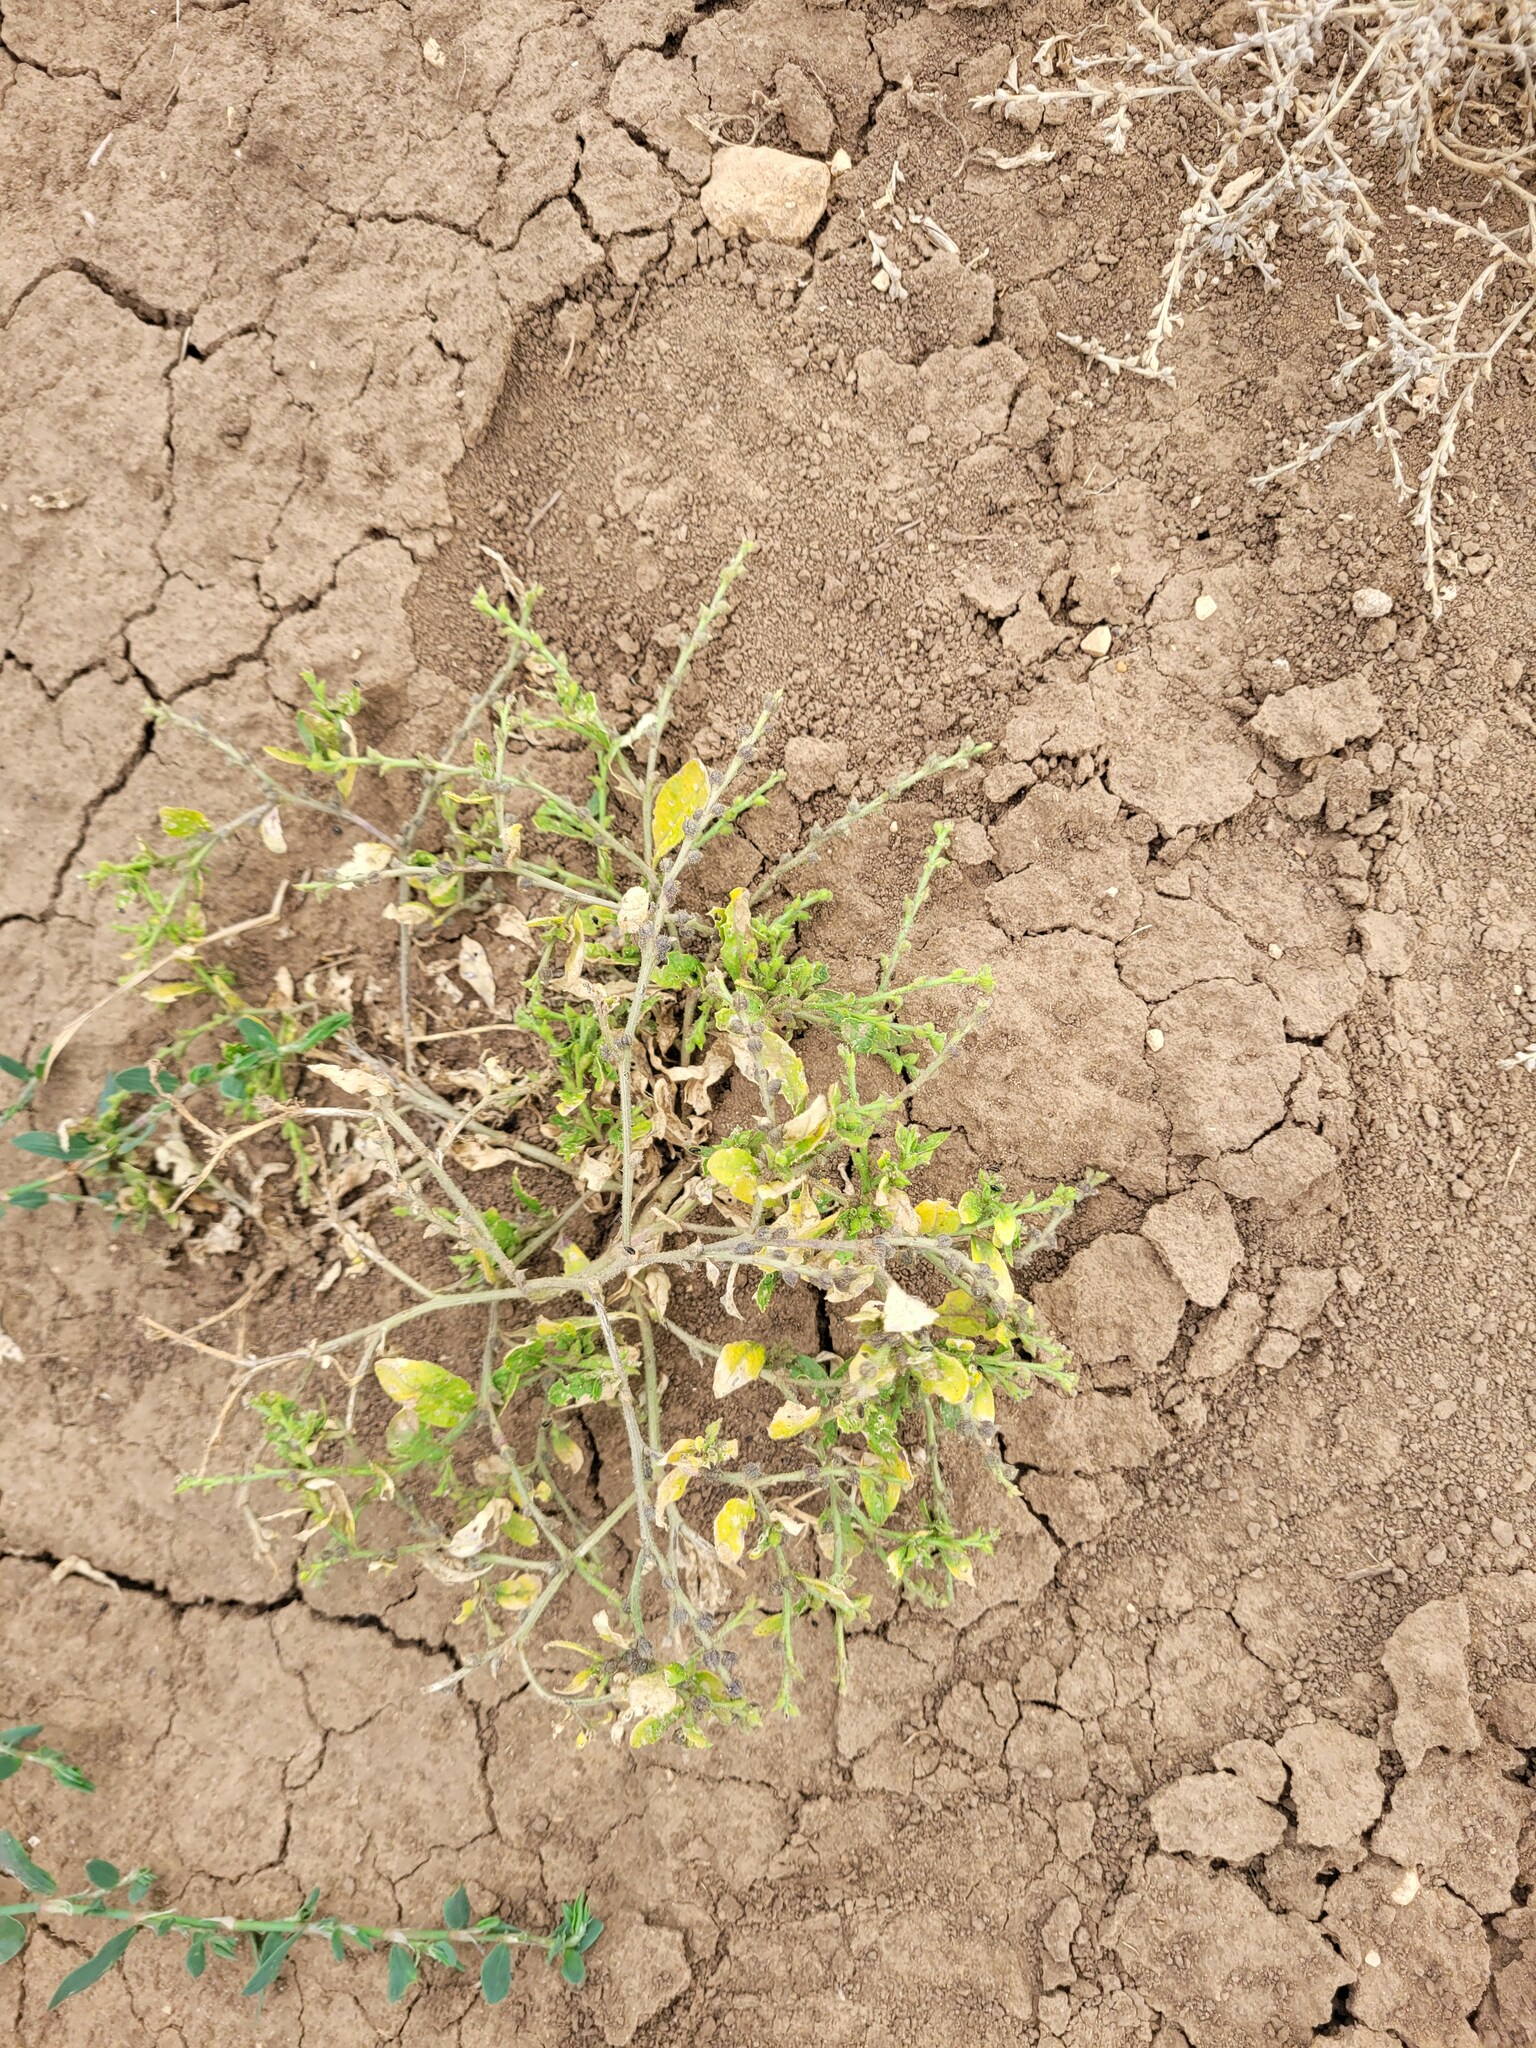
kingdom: Plantae
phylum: Tracheophyta
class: Magnoliopsida
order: Brassicales
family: Brassicaceae
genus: Euclidium
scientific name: Euclidium syriacum
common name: Syrian mustard
